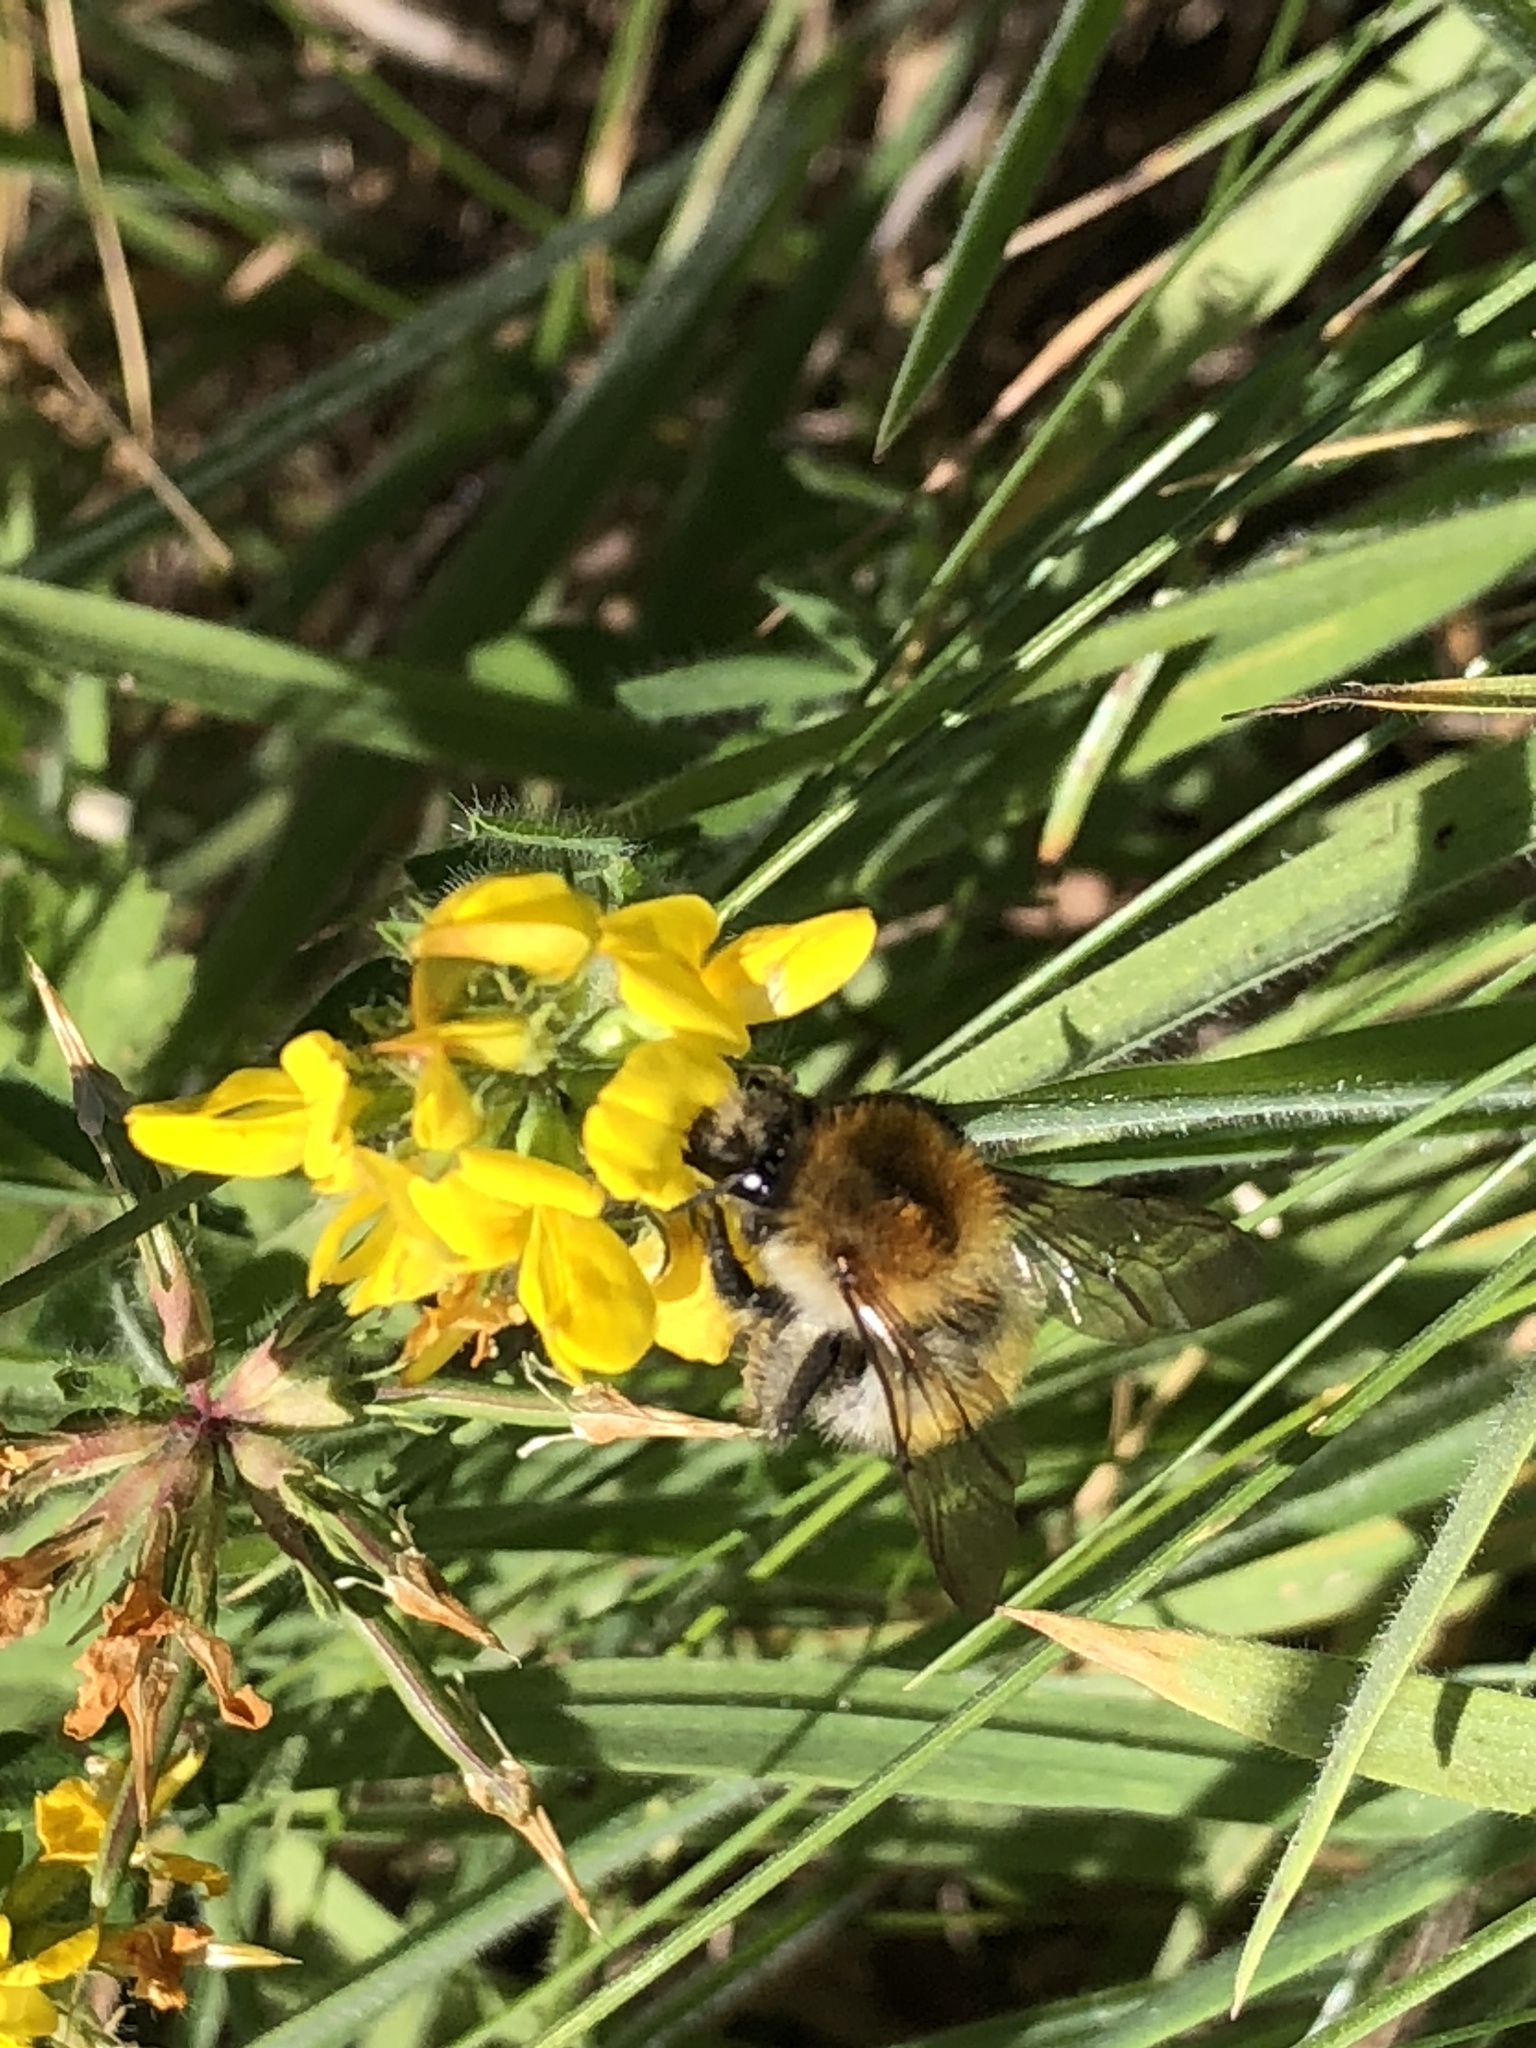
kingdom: Animalia
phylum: Arthropoda
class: Insecta
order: Hymenoptera
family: Apidae
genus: Bombus
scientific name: Bombus pascuorum
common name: Common carder bee
